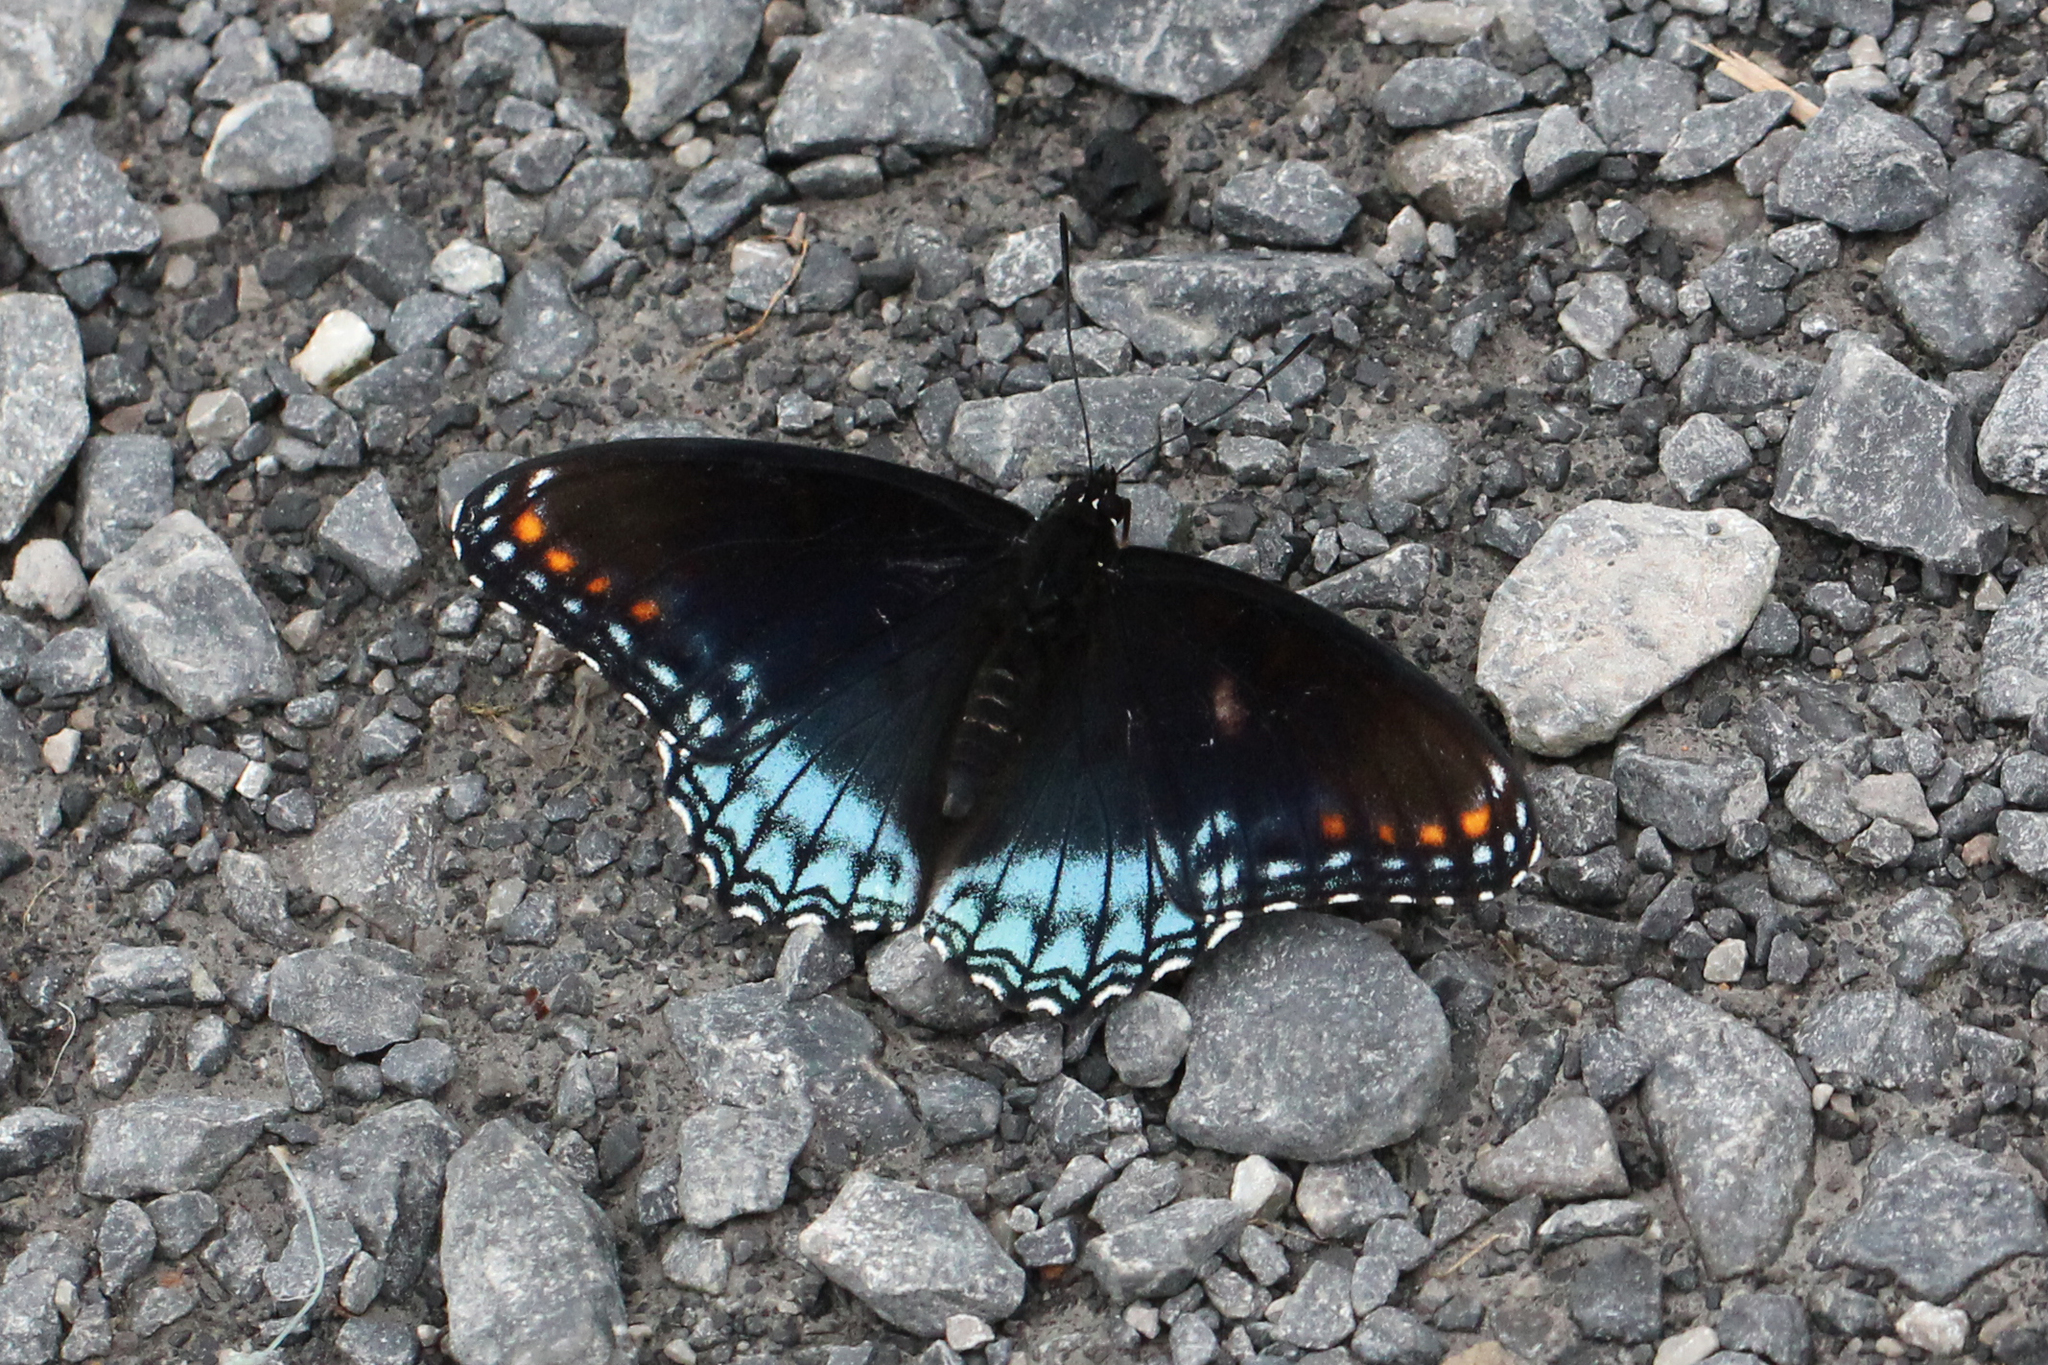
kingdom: Animalia
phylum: Arthropoda
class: Insecta
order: Lepidoptera
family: Nymphalidae
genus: Limenitis
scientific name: Limenitis astyanax
